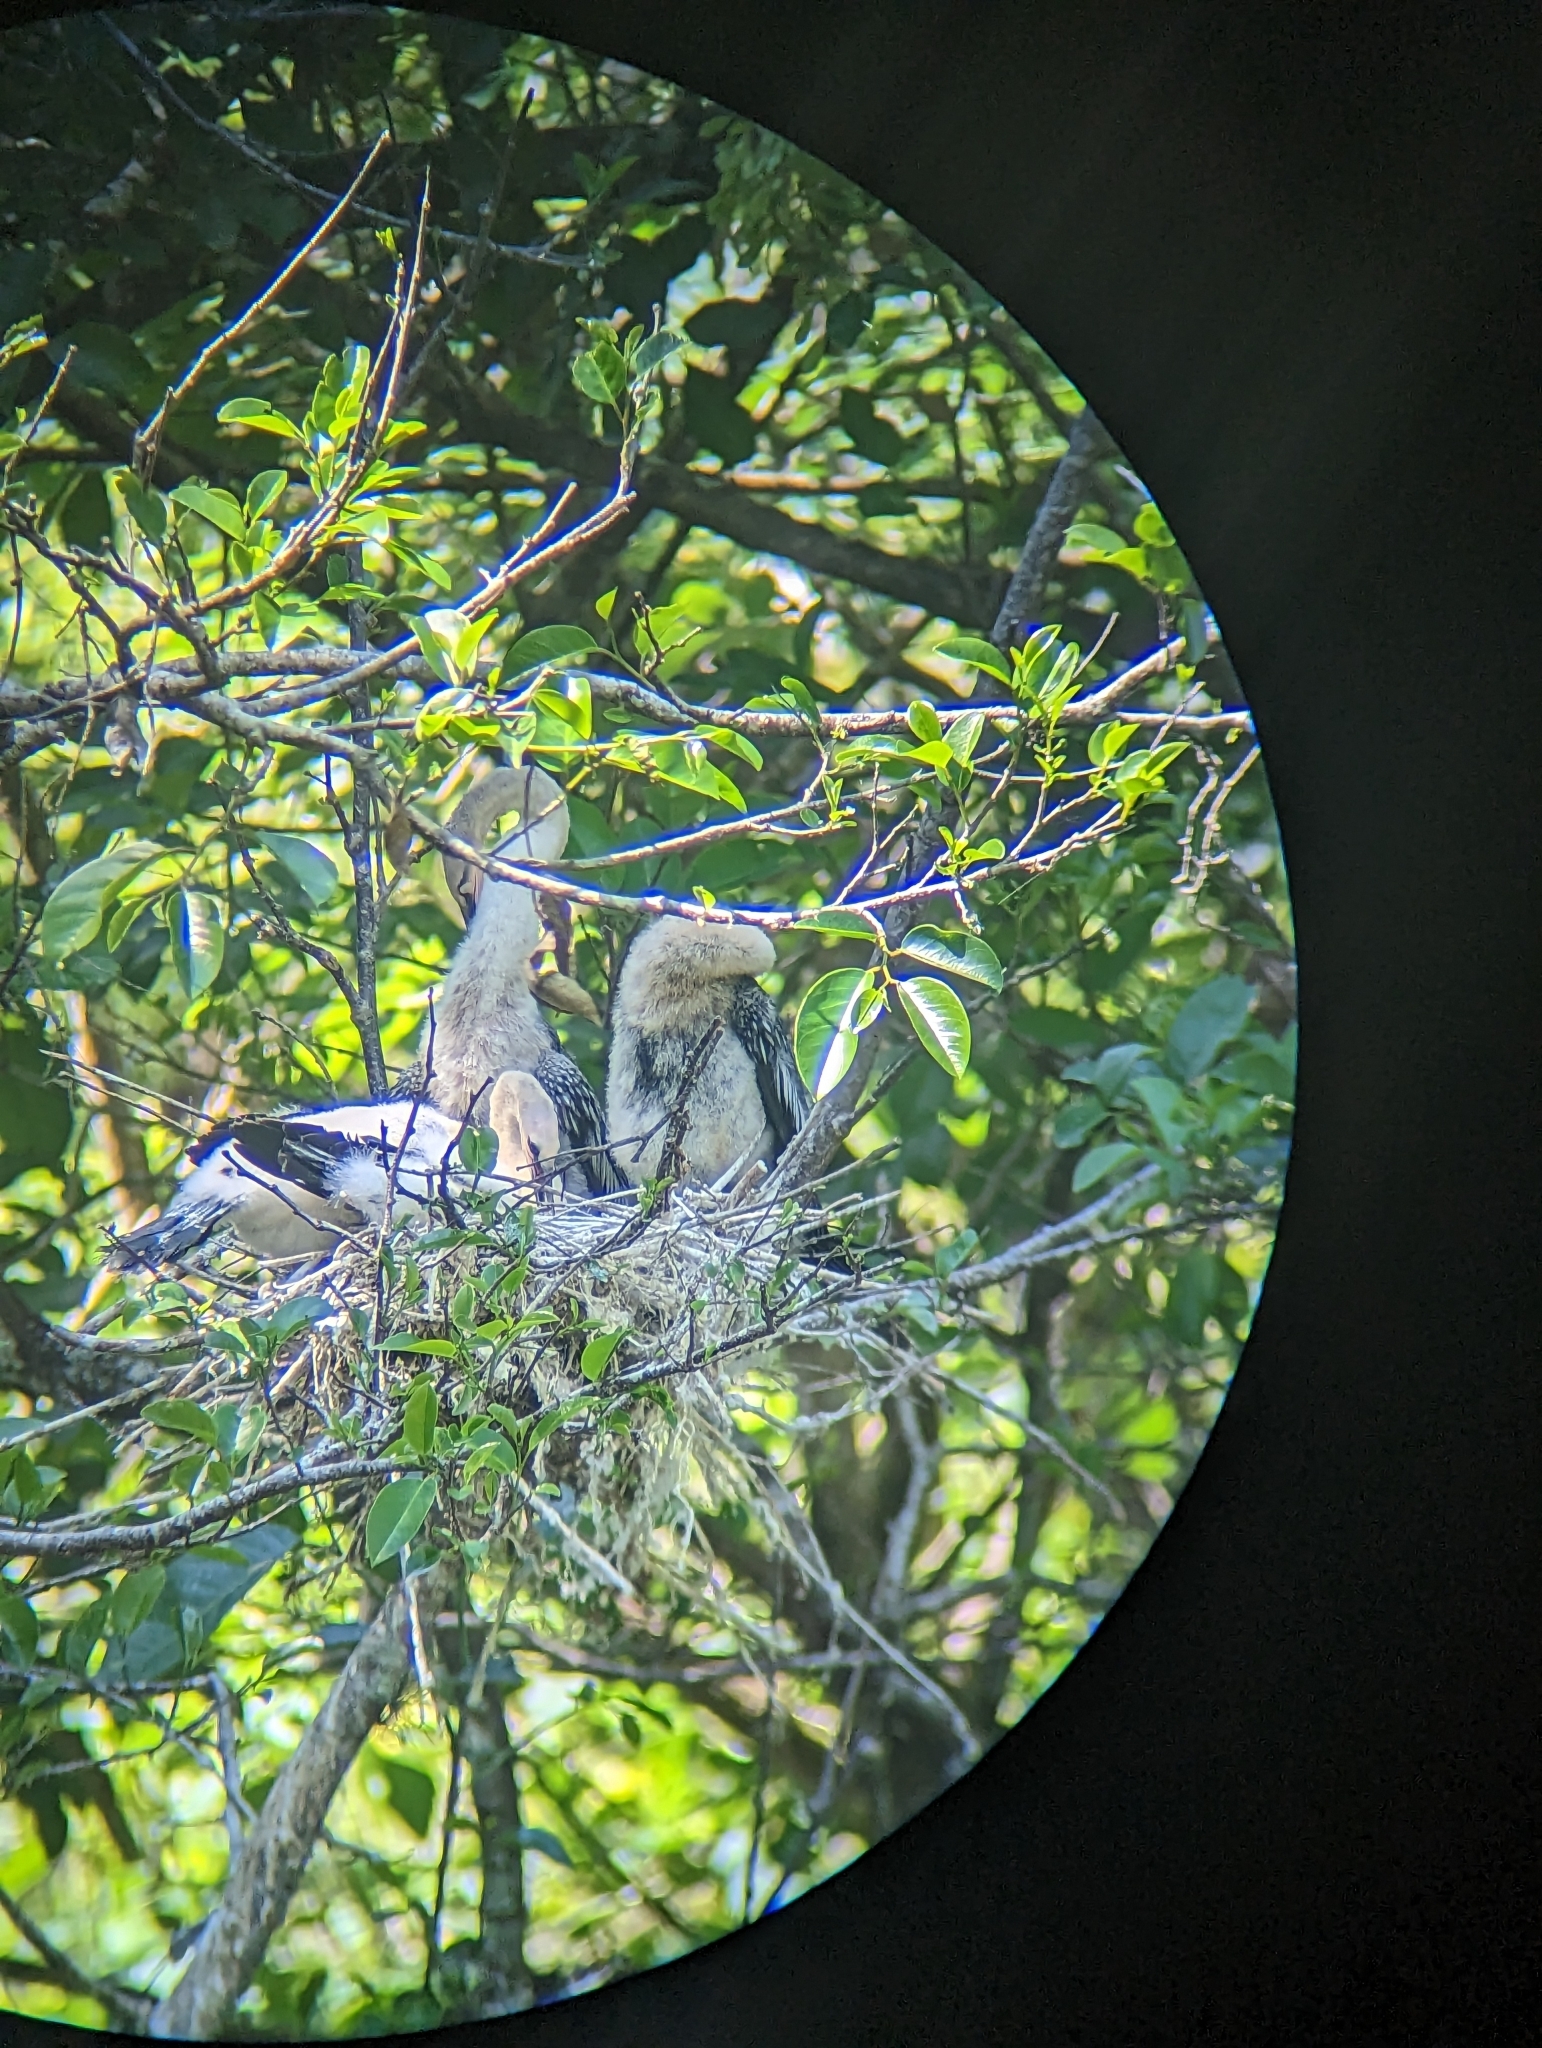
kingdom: Animalia
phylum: Chordata
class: Aves
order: Suliformes
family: Anhingidae
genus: Anhinga
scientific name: Anhinga anhinga
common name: Anhinga
